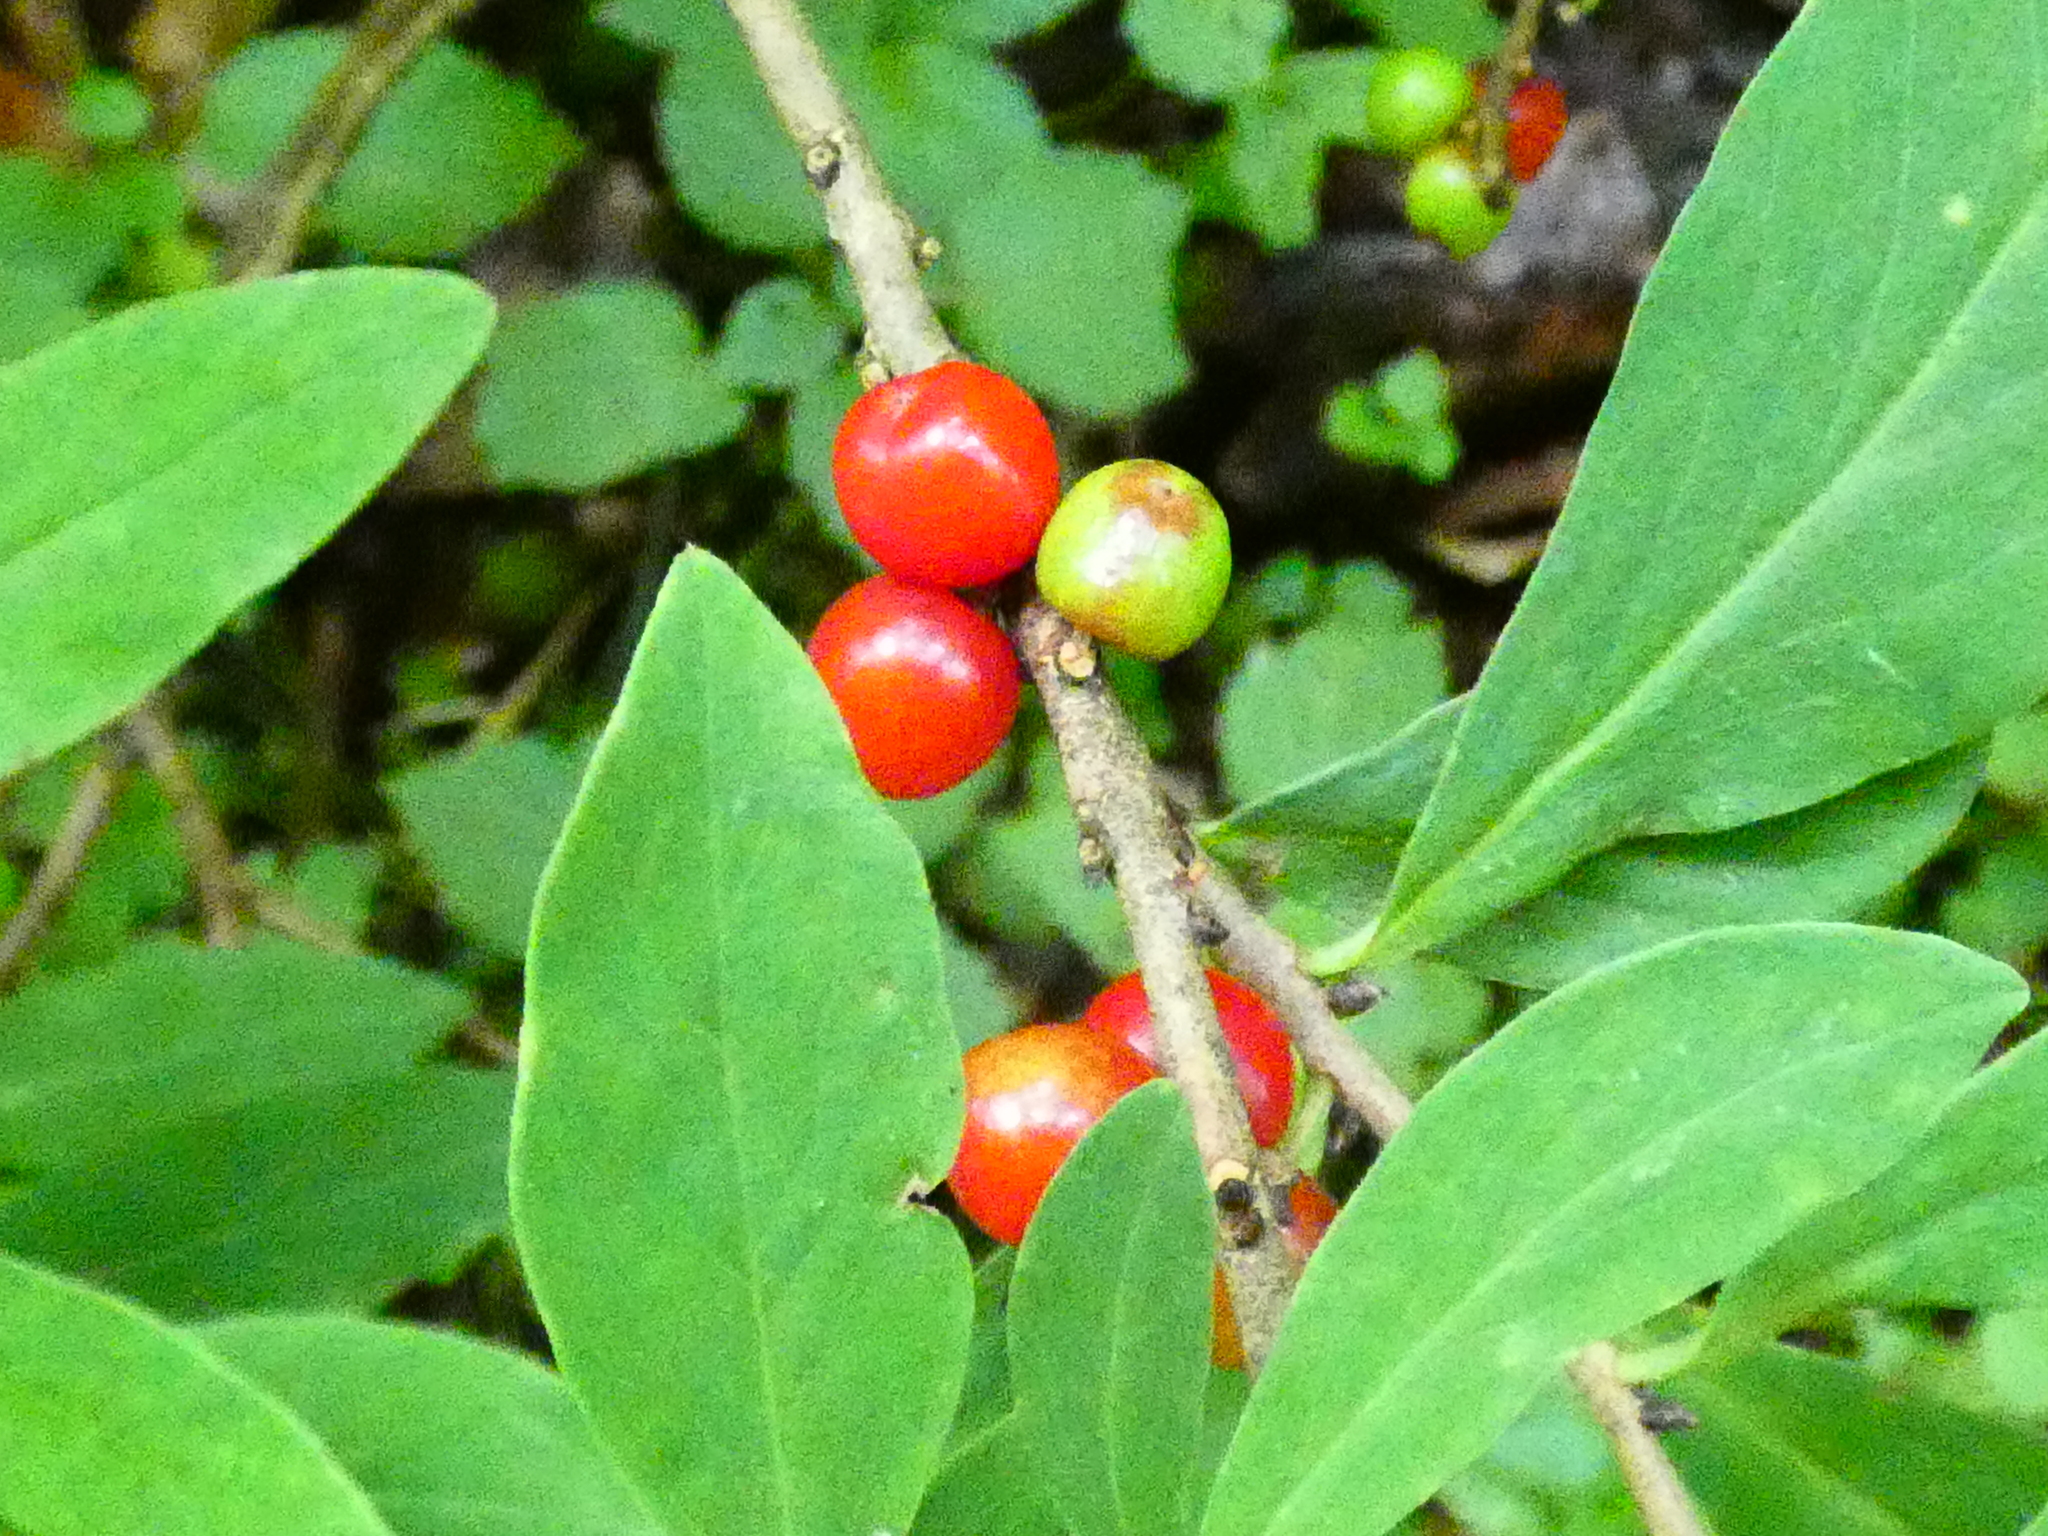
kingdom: Plantae
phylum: Tracheophyta
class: Magnoliopsida
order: Malvales
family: Thymelaeaceae
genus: Daphne
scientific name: Daphne mezereum
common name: Mezereon
